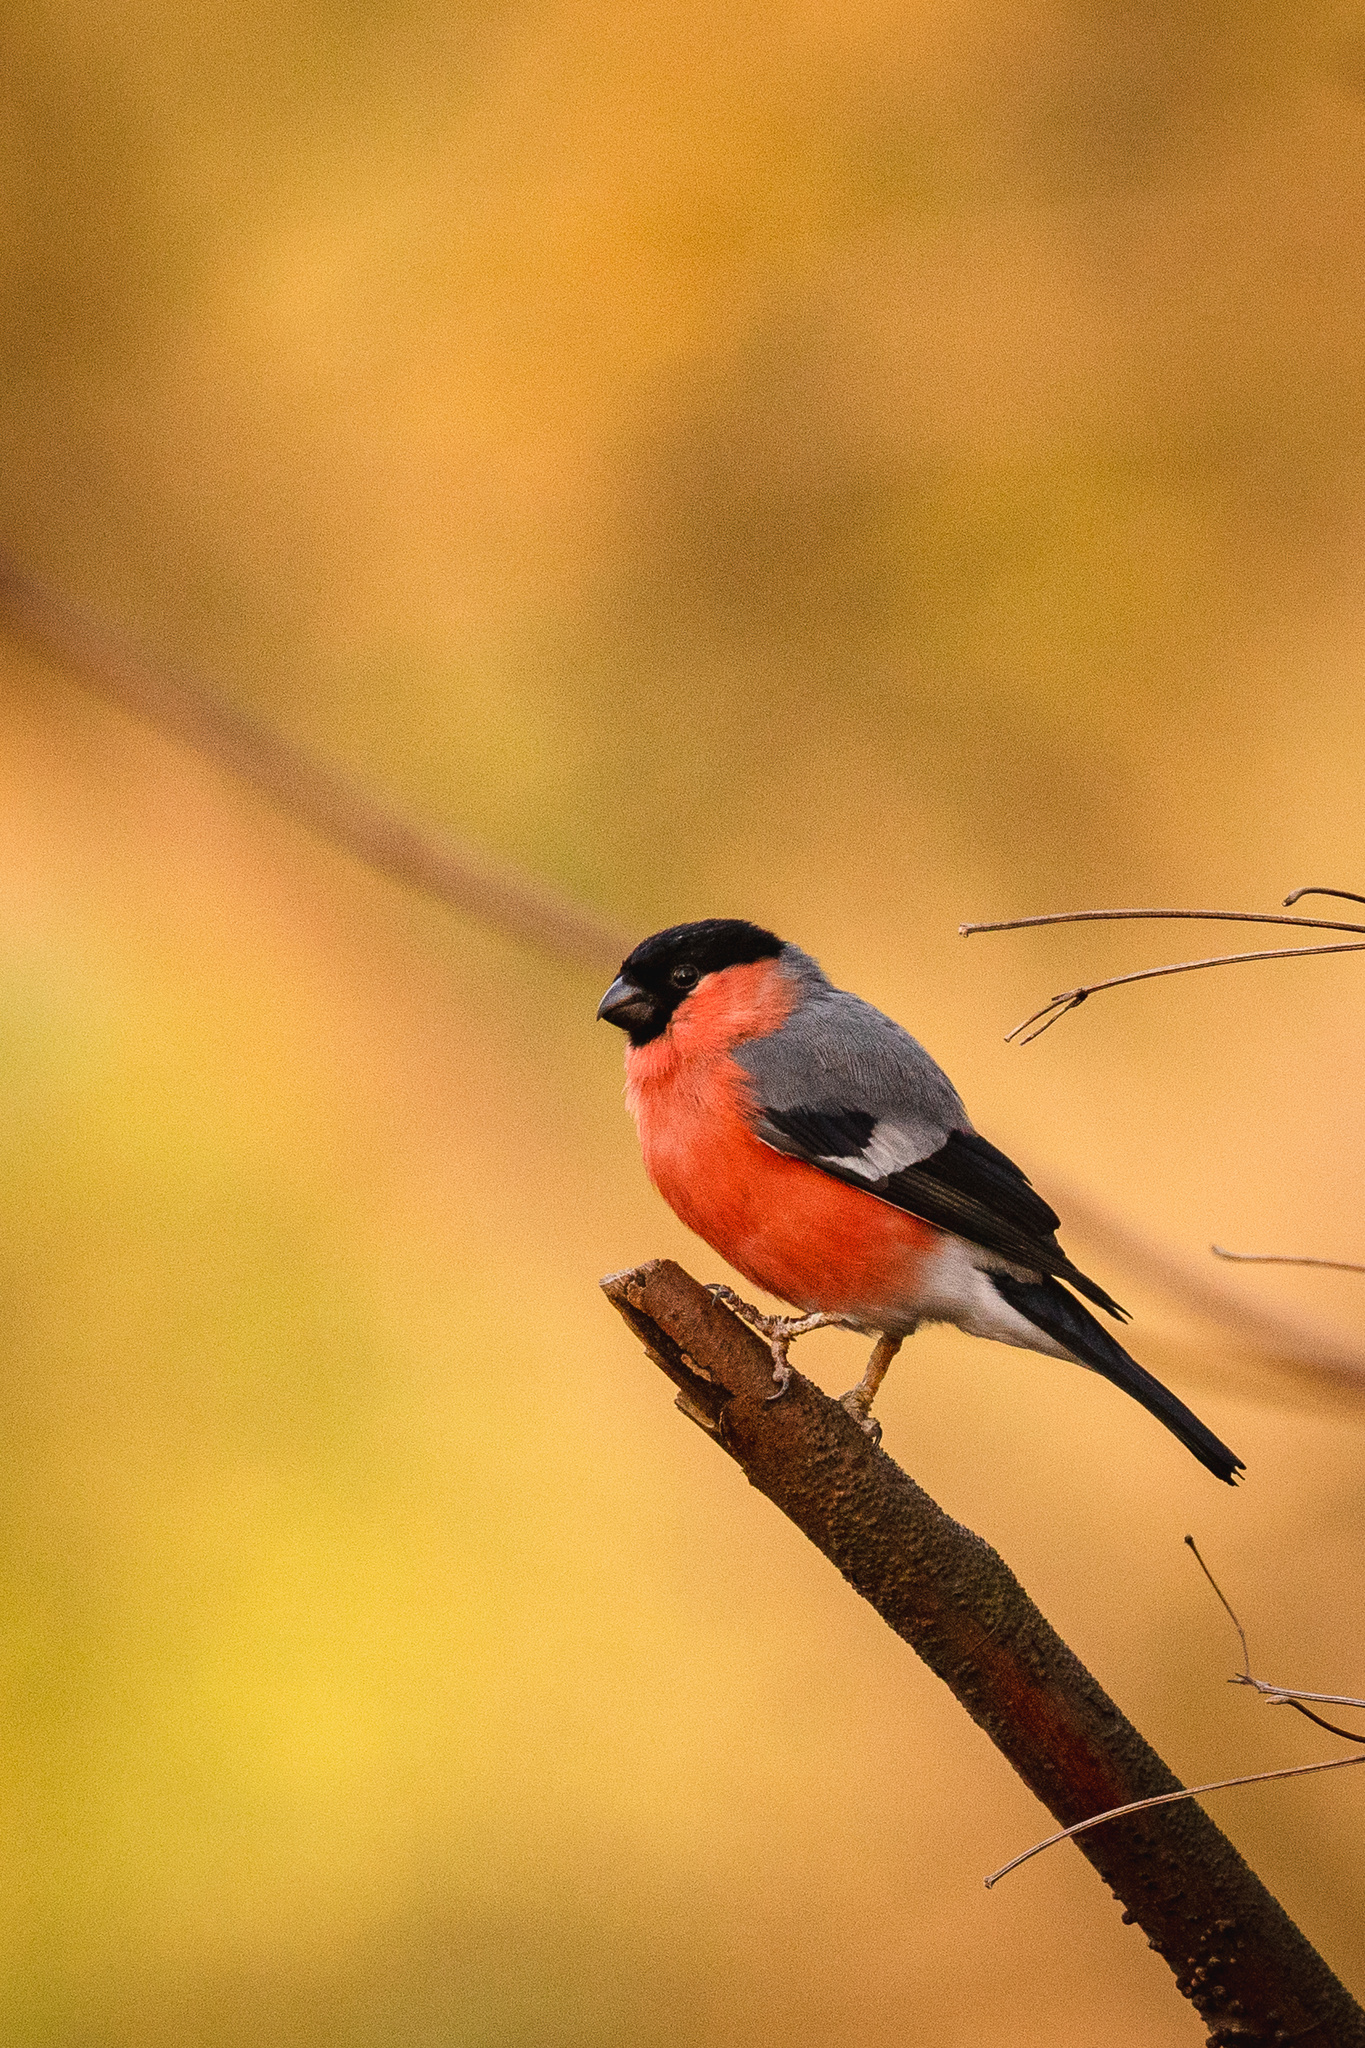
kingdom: Animalia
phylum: Chordata
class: Aves
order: Passeriformes
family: Fringillidae
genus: Pyrrhula
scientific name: Pyrrhula pyrrhula
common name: Eurasian bullfinch
